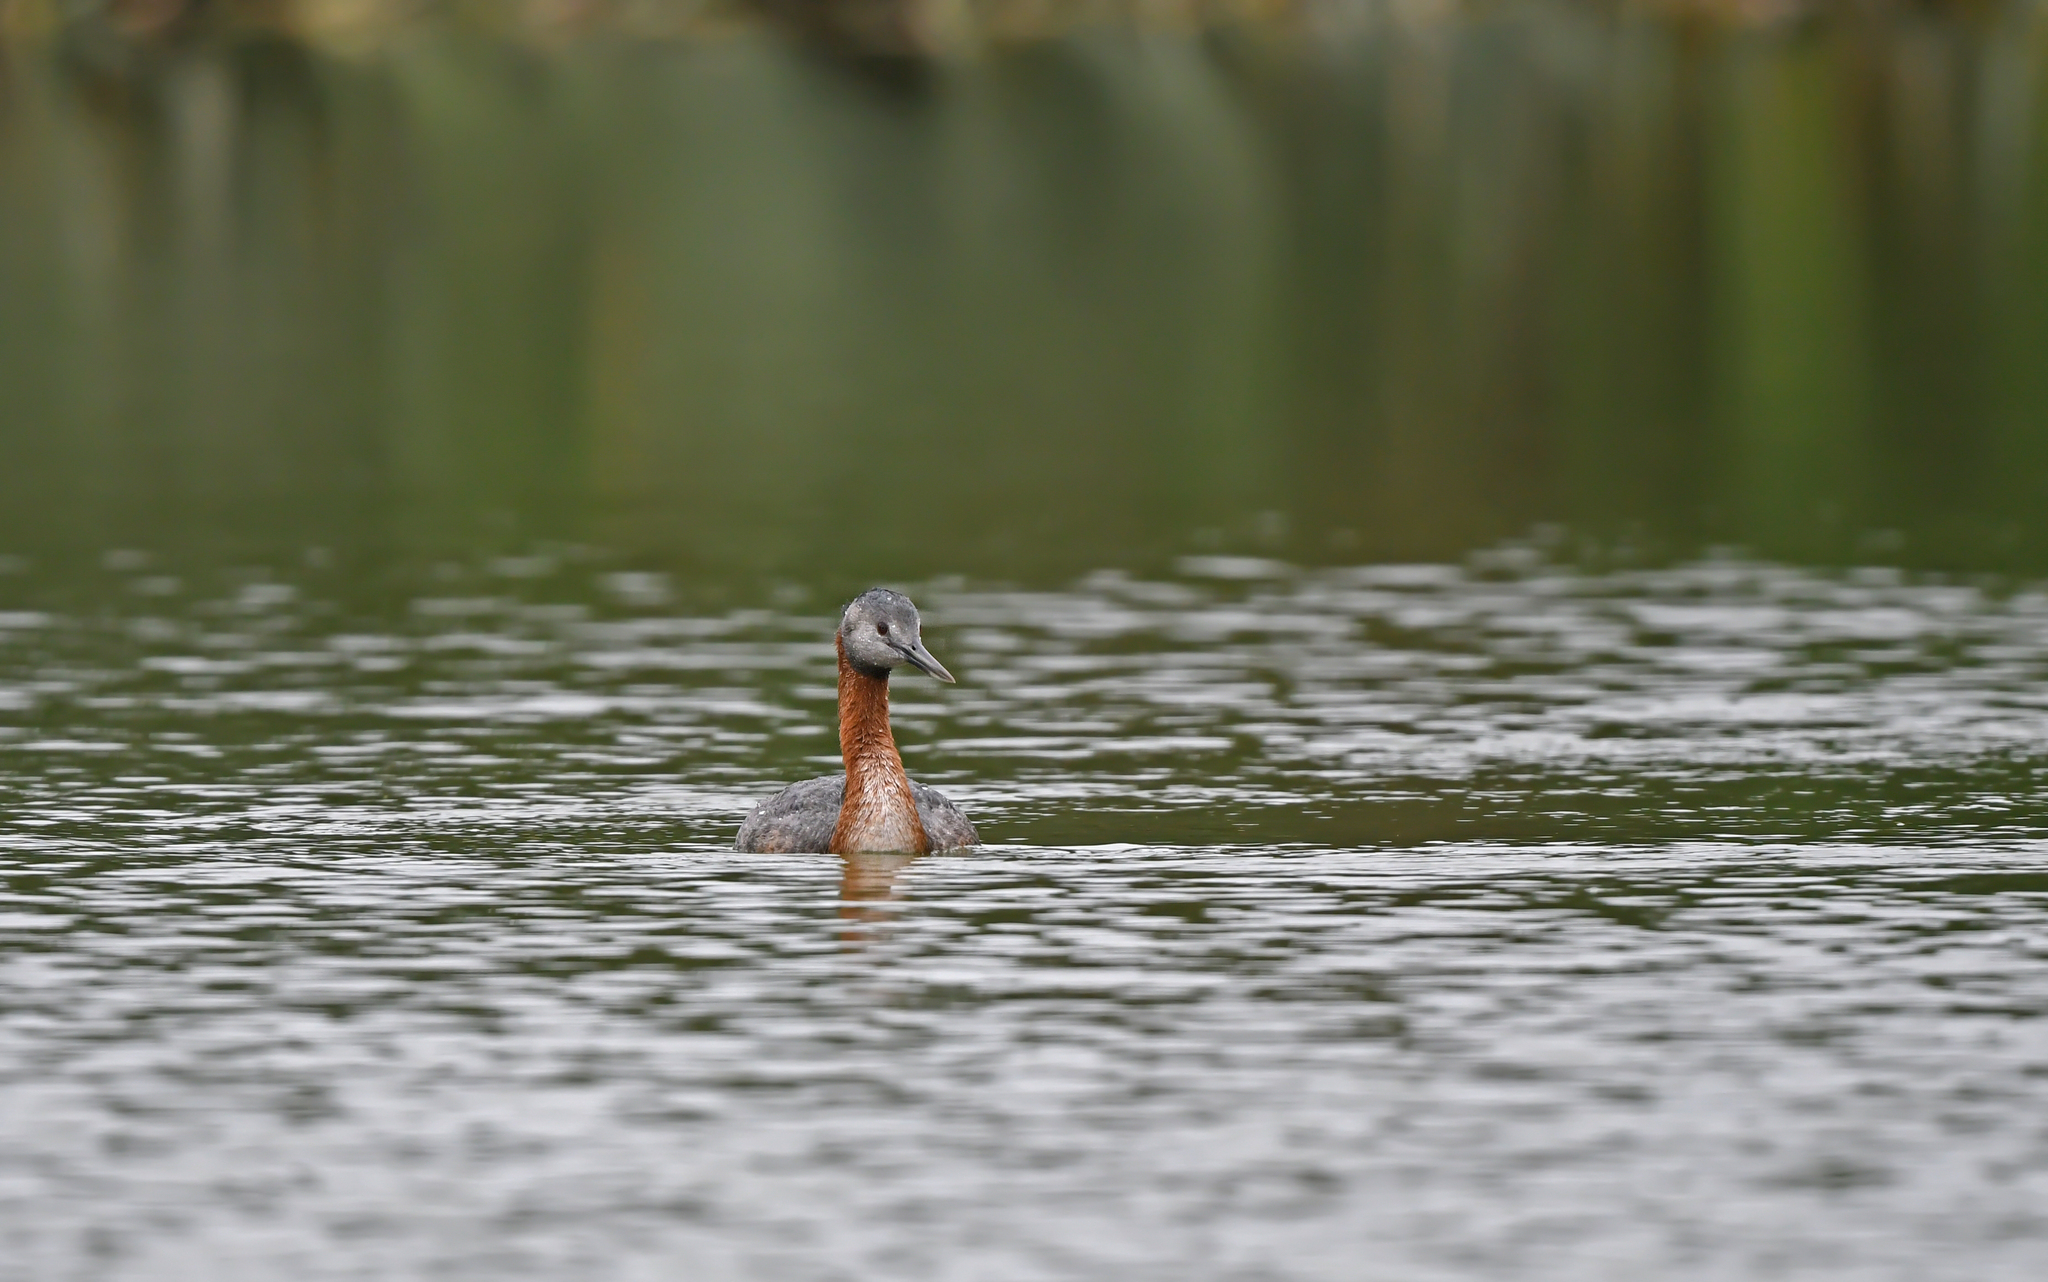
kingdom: Animalia
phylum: Chordata
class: Aves
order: Podicipediformes
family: Podicipedidae
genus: Podiceps
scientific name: Podiceps major
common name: Great grebe
